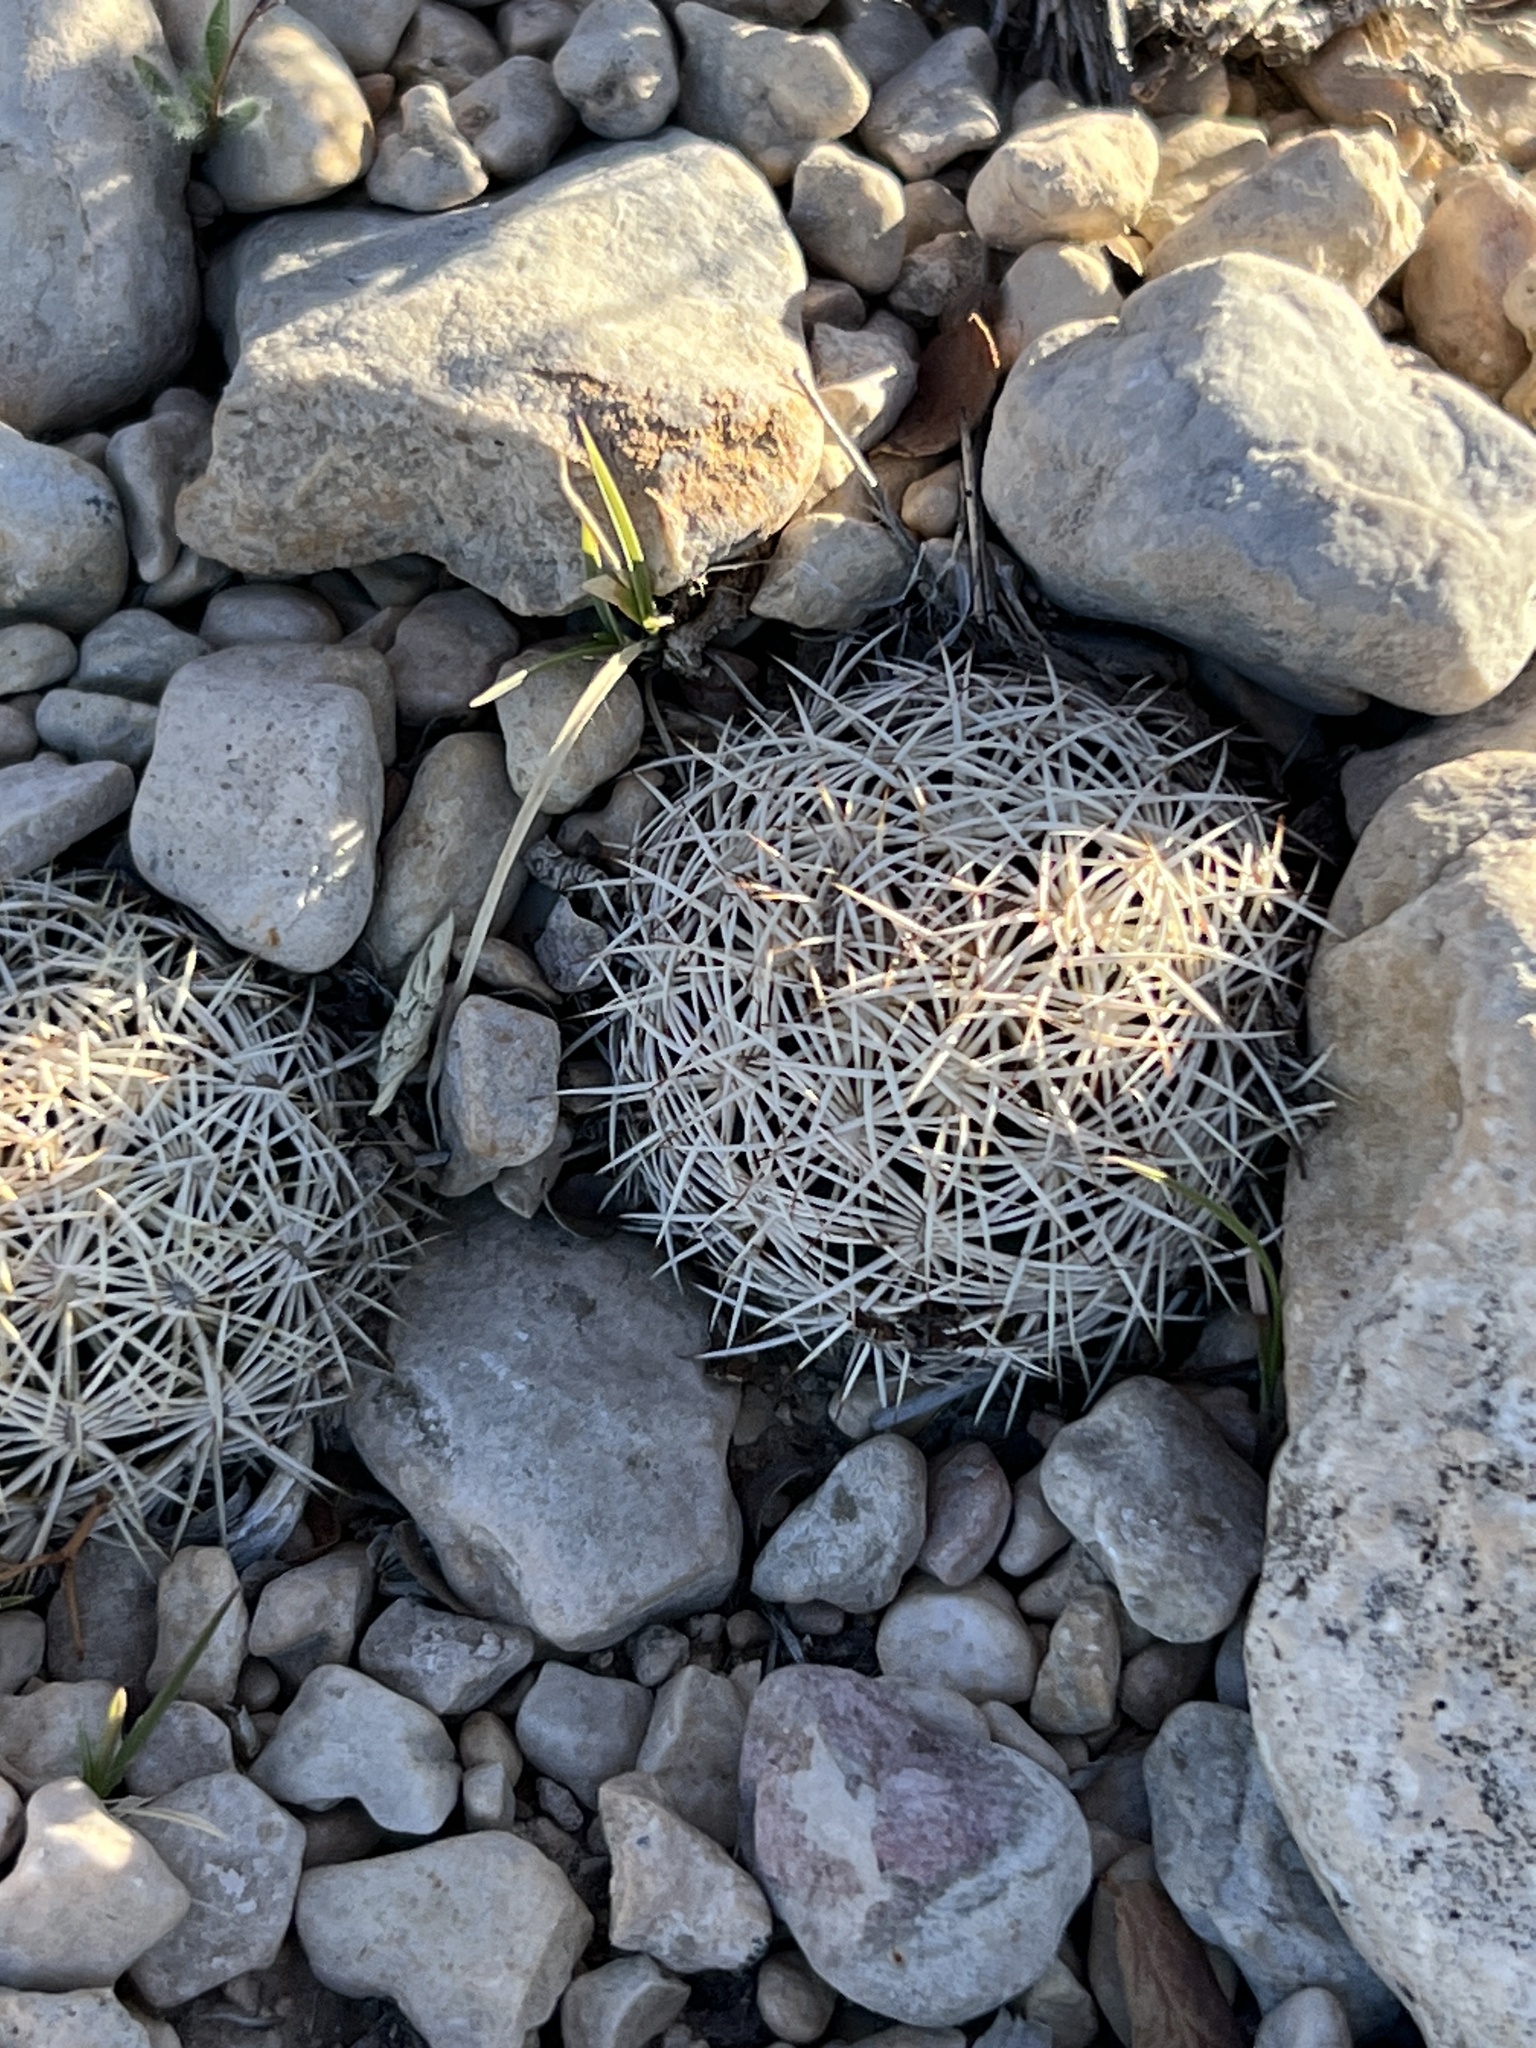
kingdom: Plantae
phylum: Tracheophyta
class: Magnoliopsida
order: Caryophyllales
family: Cactaceae
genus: Coryphantha
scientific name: Coryphantha echinus
